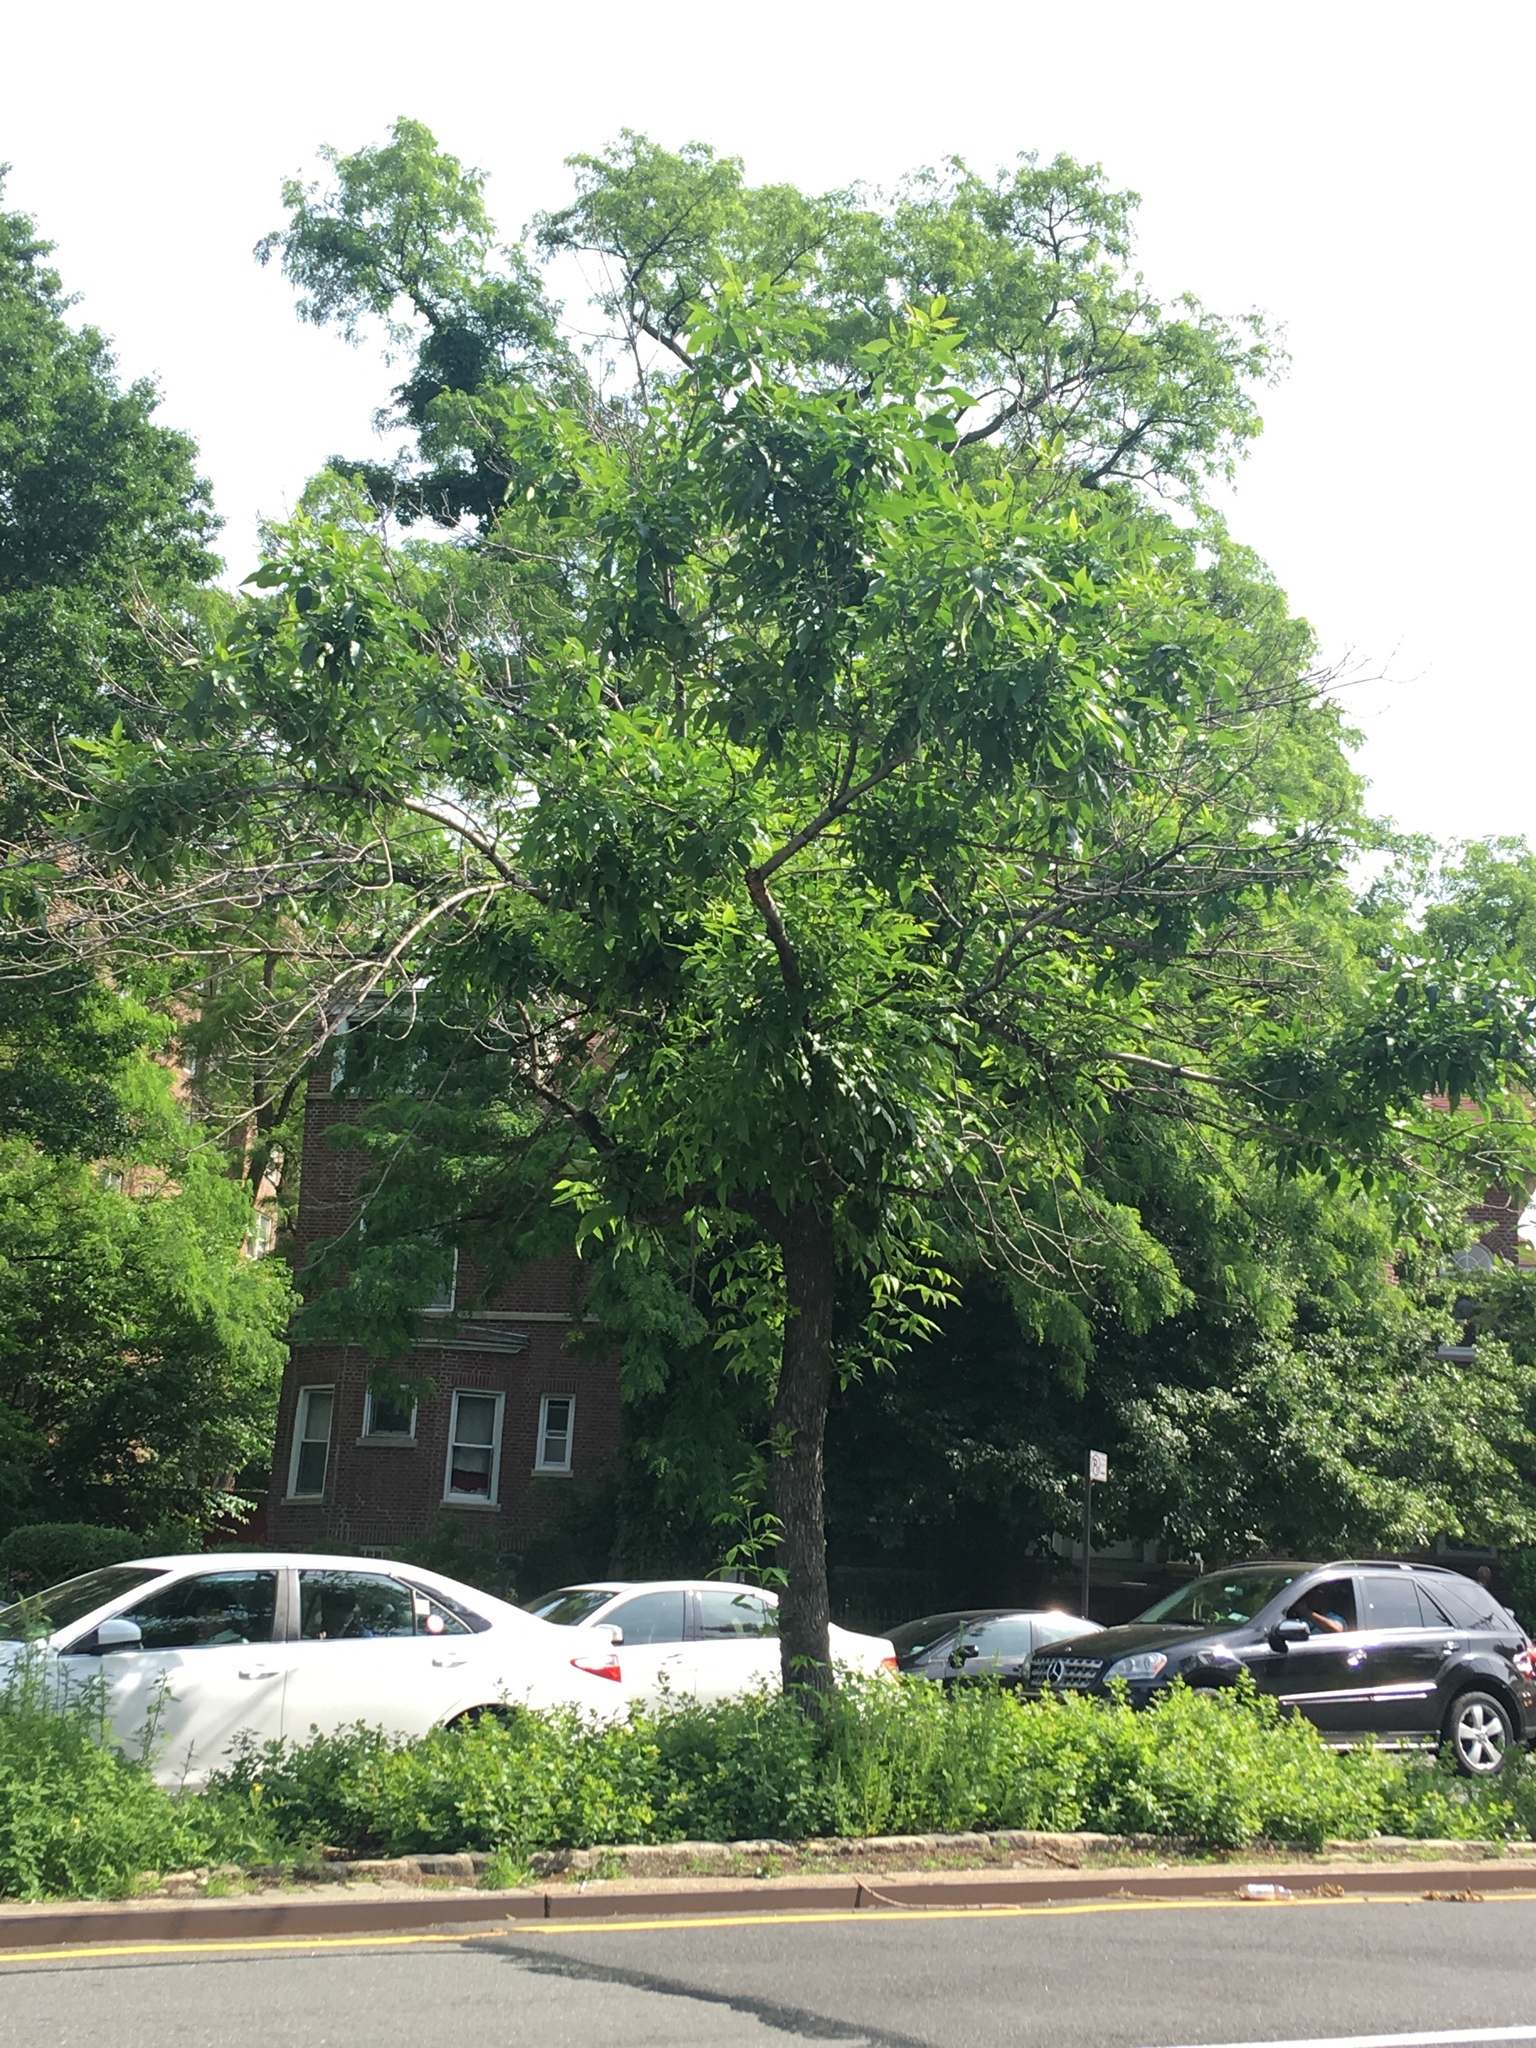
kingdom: Plantae
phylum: Tracheophyta
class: Magnoliopsida
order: Lamiales
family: Oleaceae
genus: Fraxinus
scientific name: Fraxinus pennsylvanica
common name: Green ash
